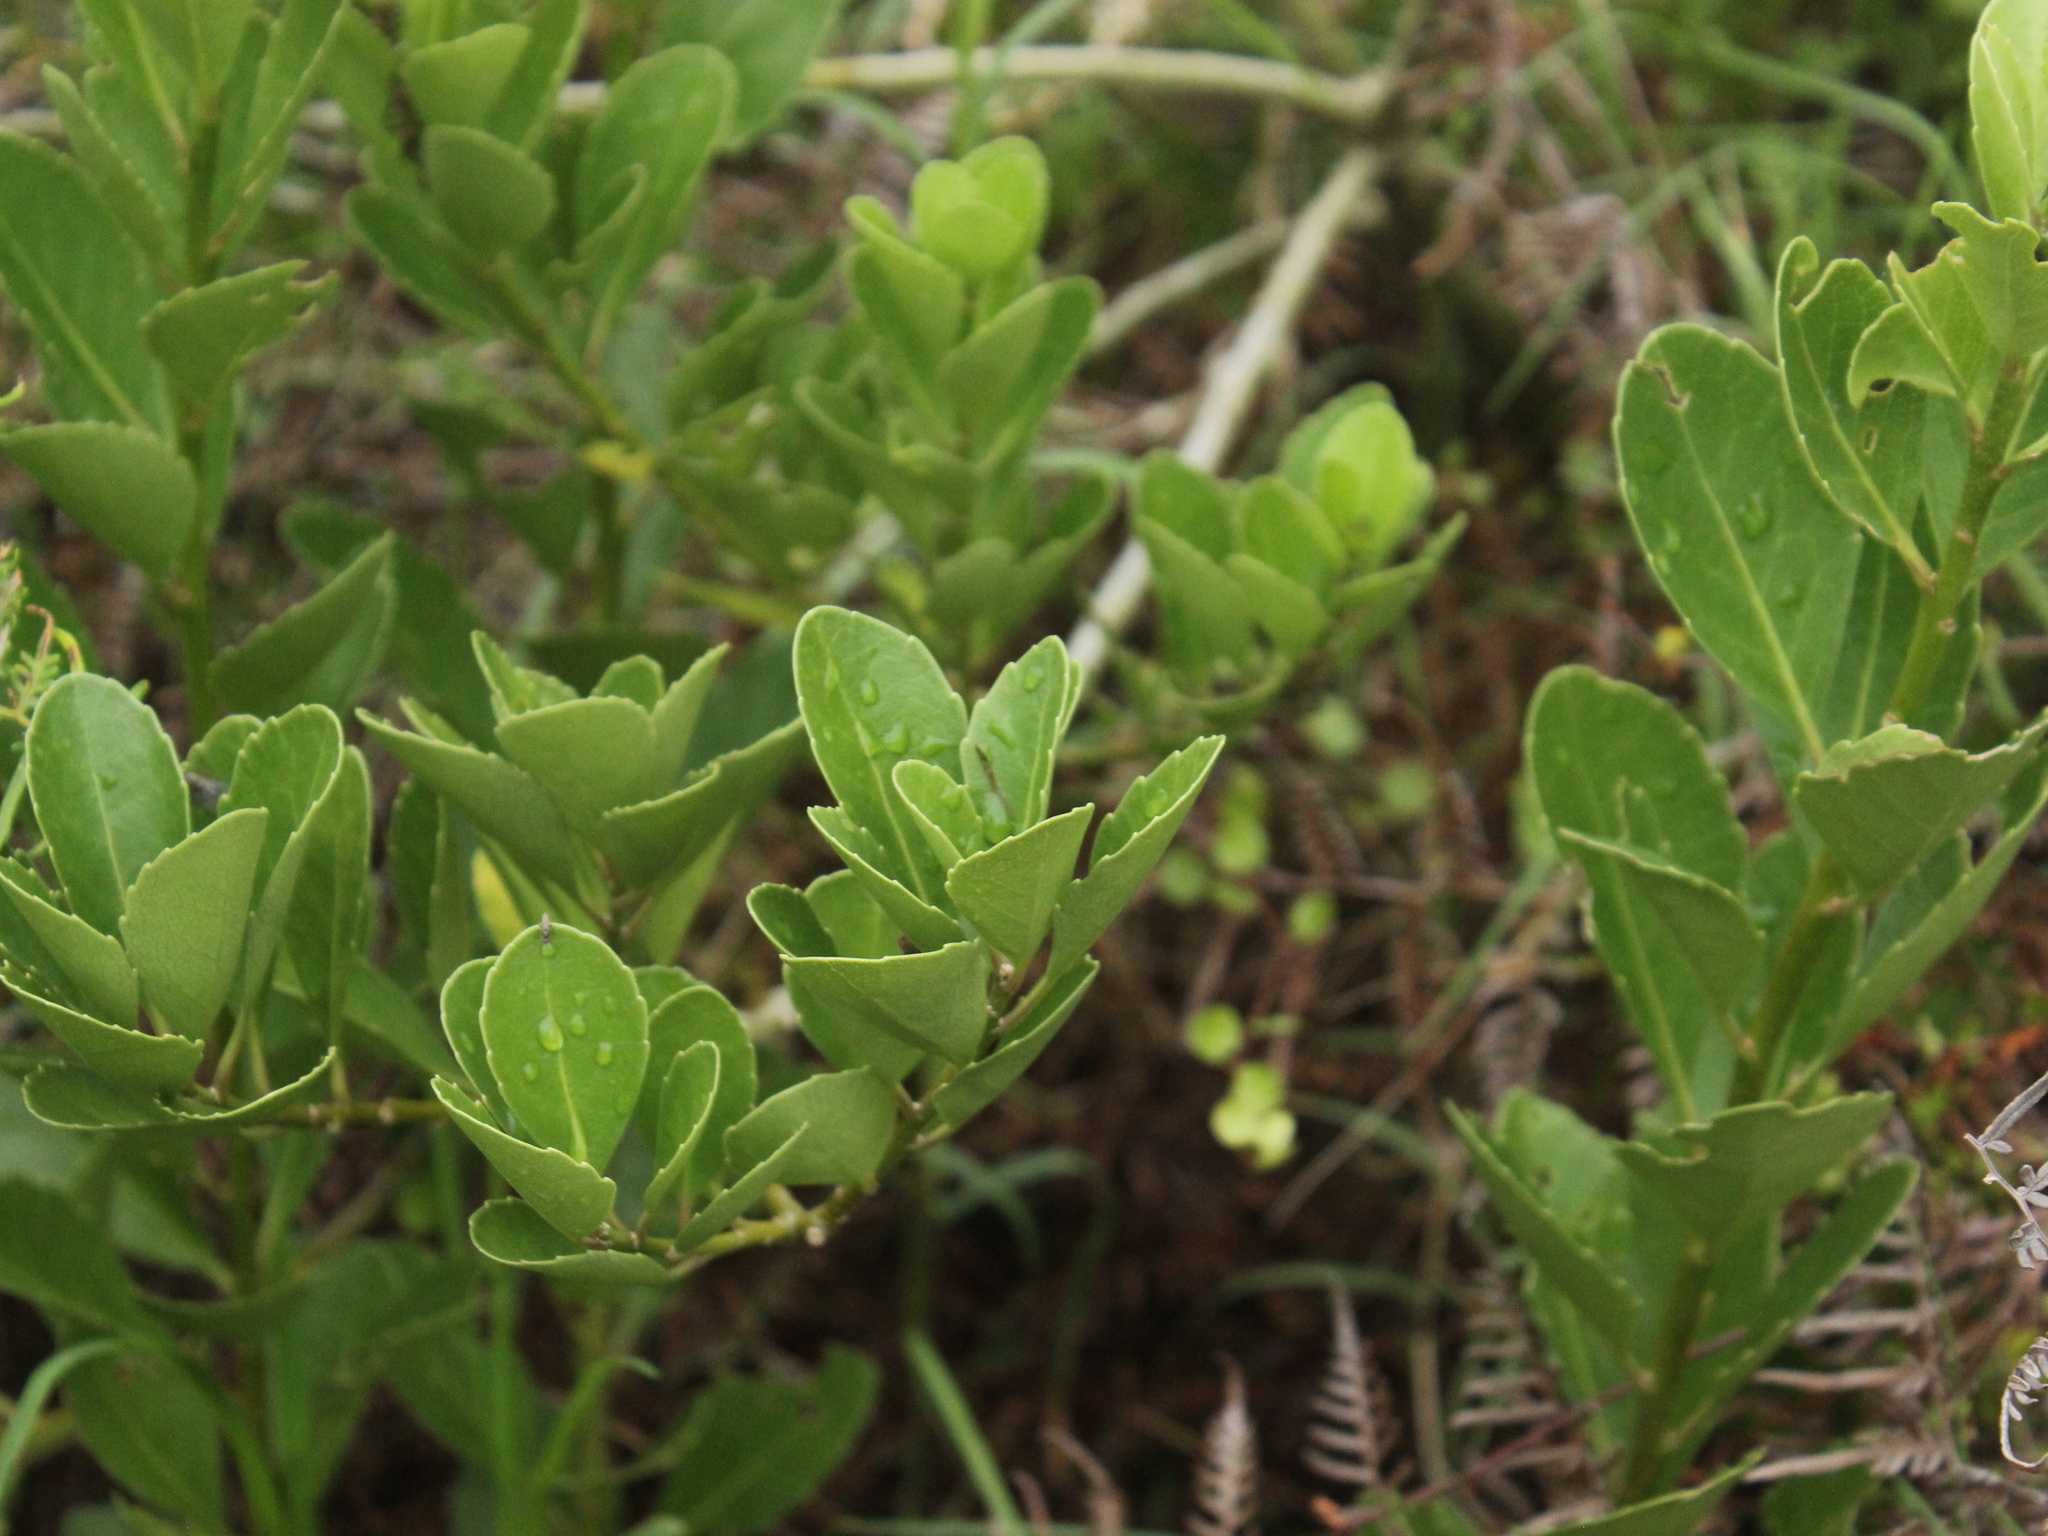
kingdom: Plantae
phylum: Tracheophyta
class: Magnoliopsida
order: Malpighiales
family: Violaceae
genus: Melicytus
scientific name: Melicytus novae-zelandiae
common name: Coastal mahoe
